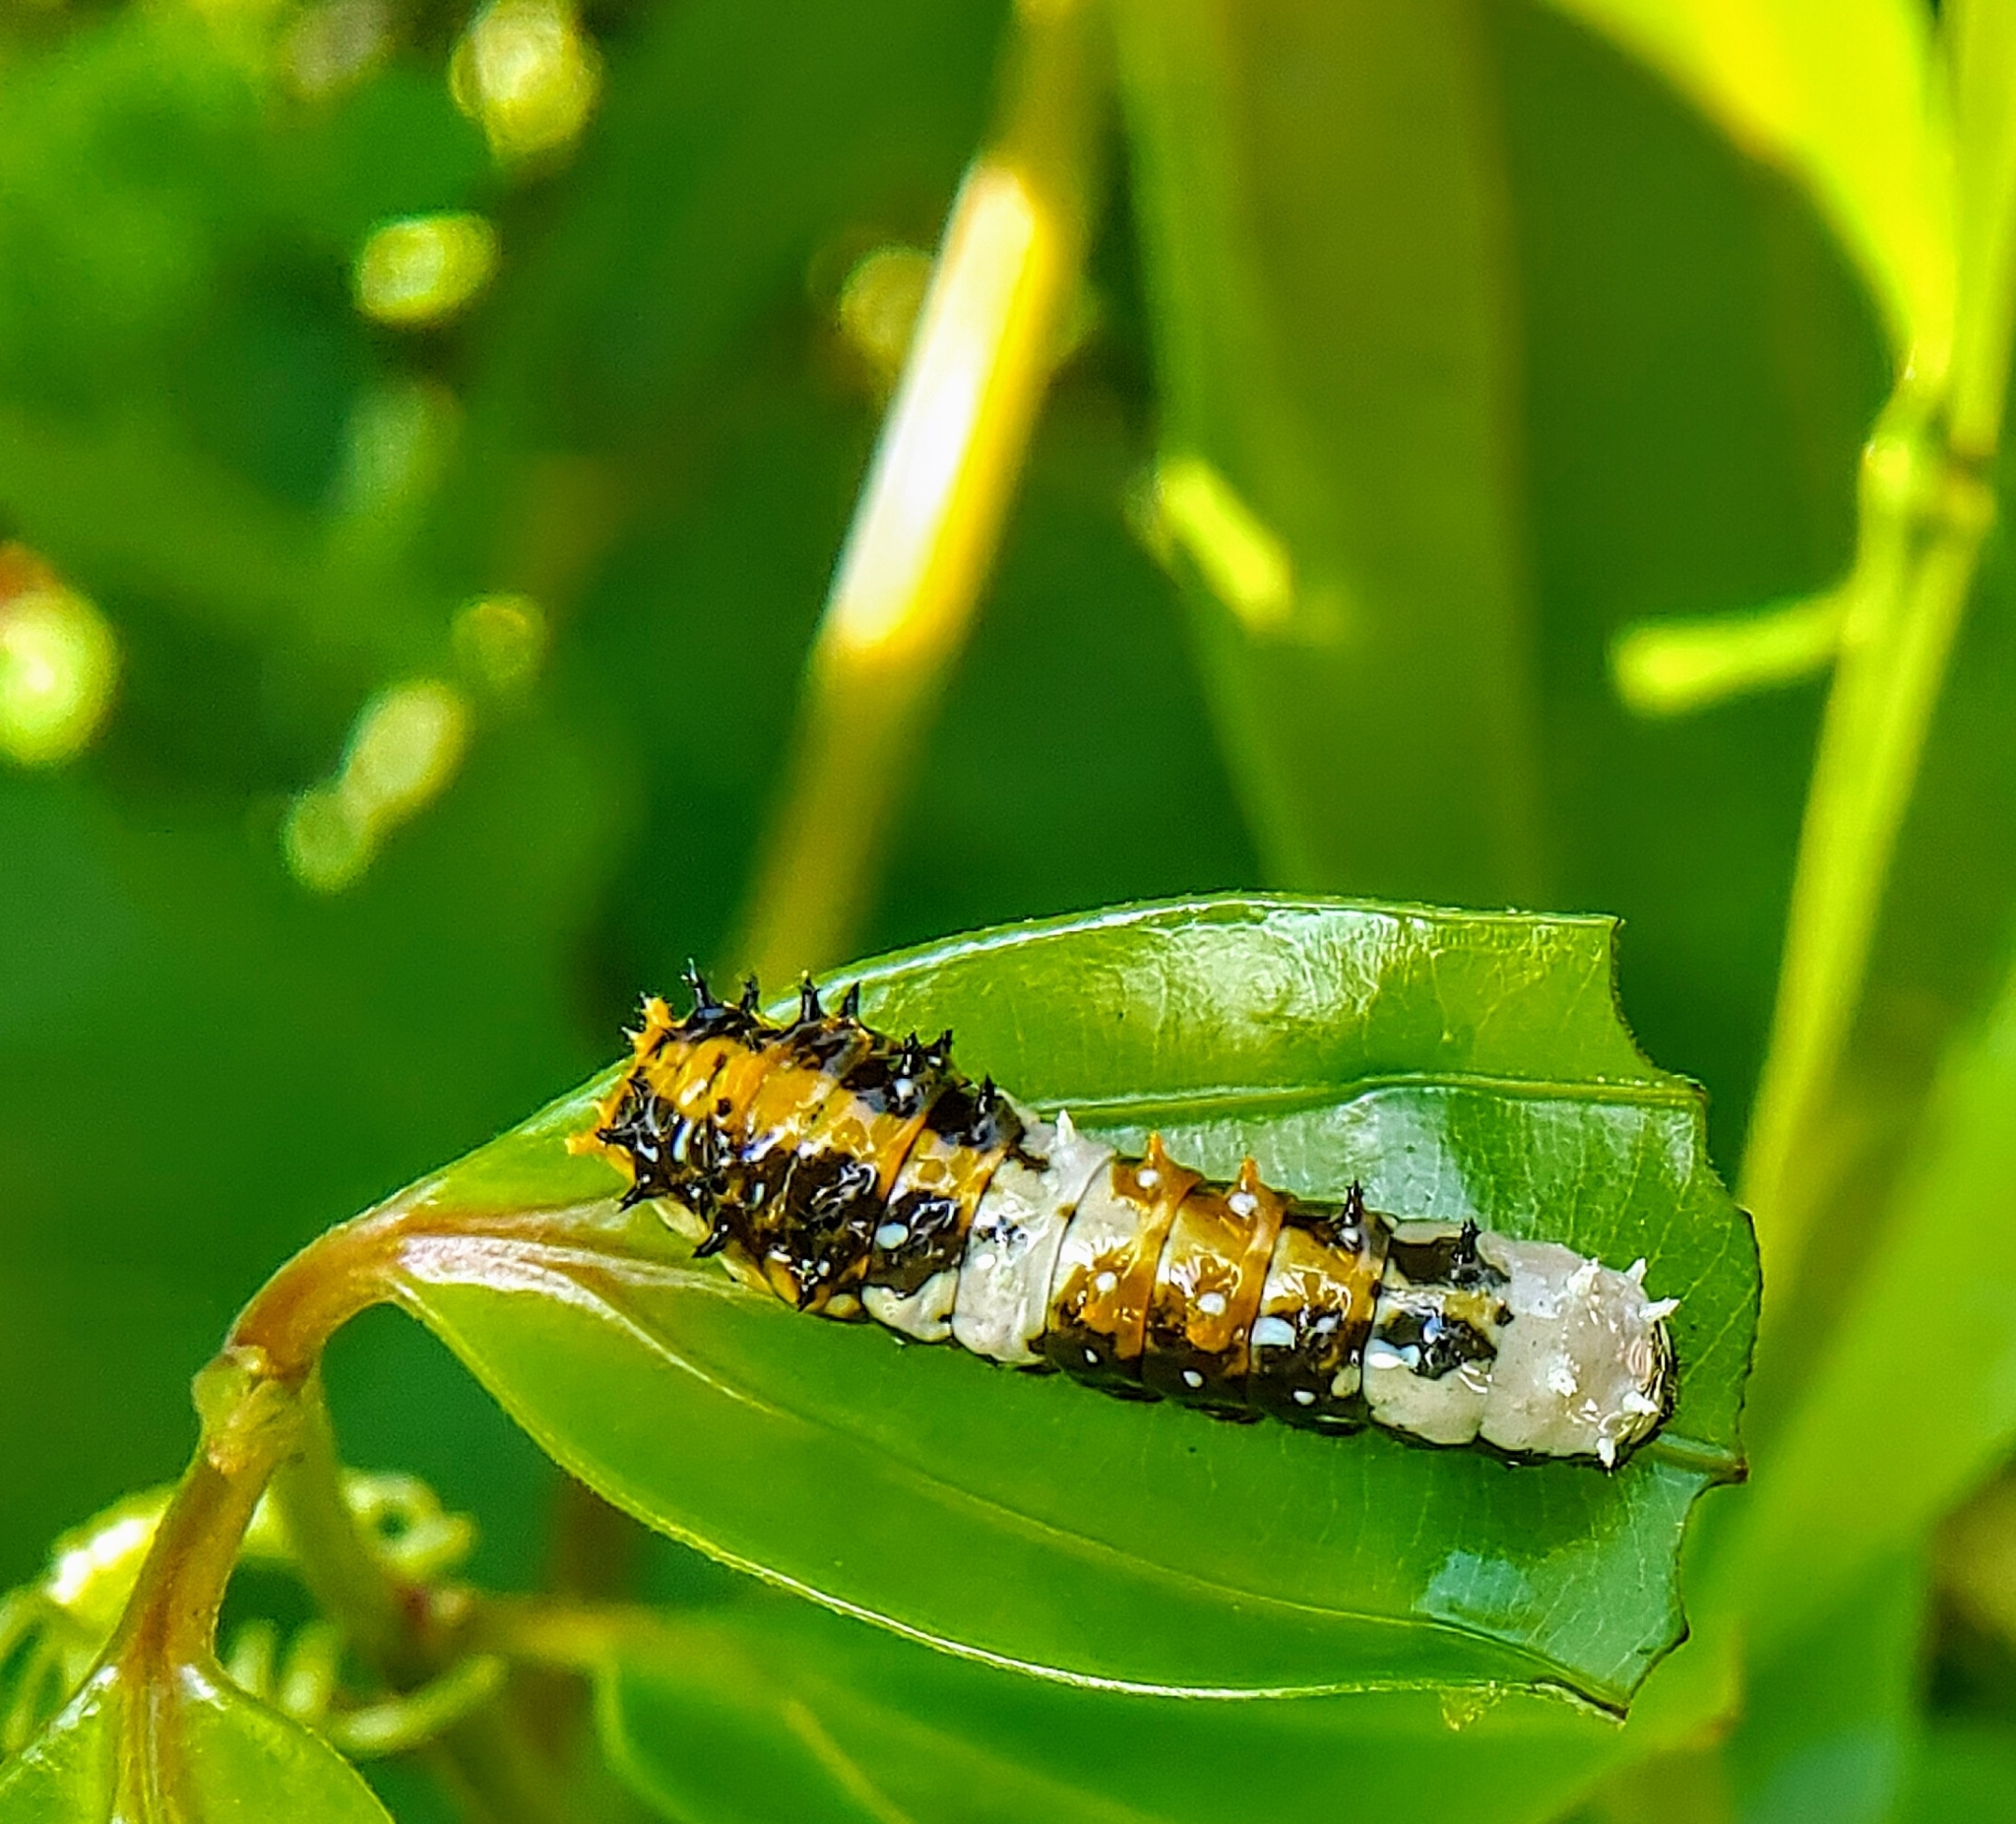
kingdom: Animalia
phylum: Arthropoda
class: Insecta
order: Lepidoptera
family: Papilionidae
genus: Chilasa
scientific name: Chilasa clytia
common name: Common mime
